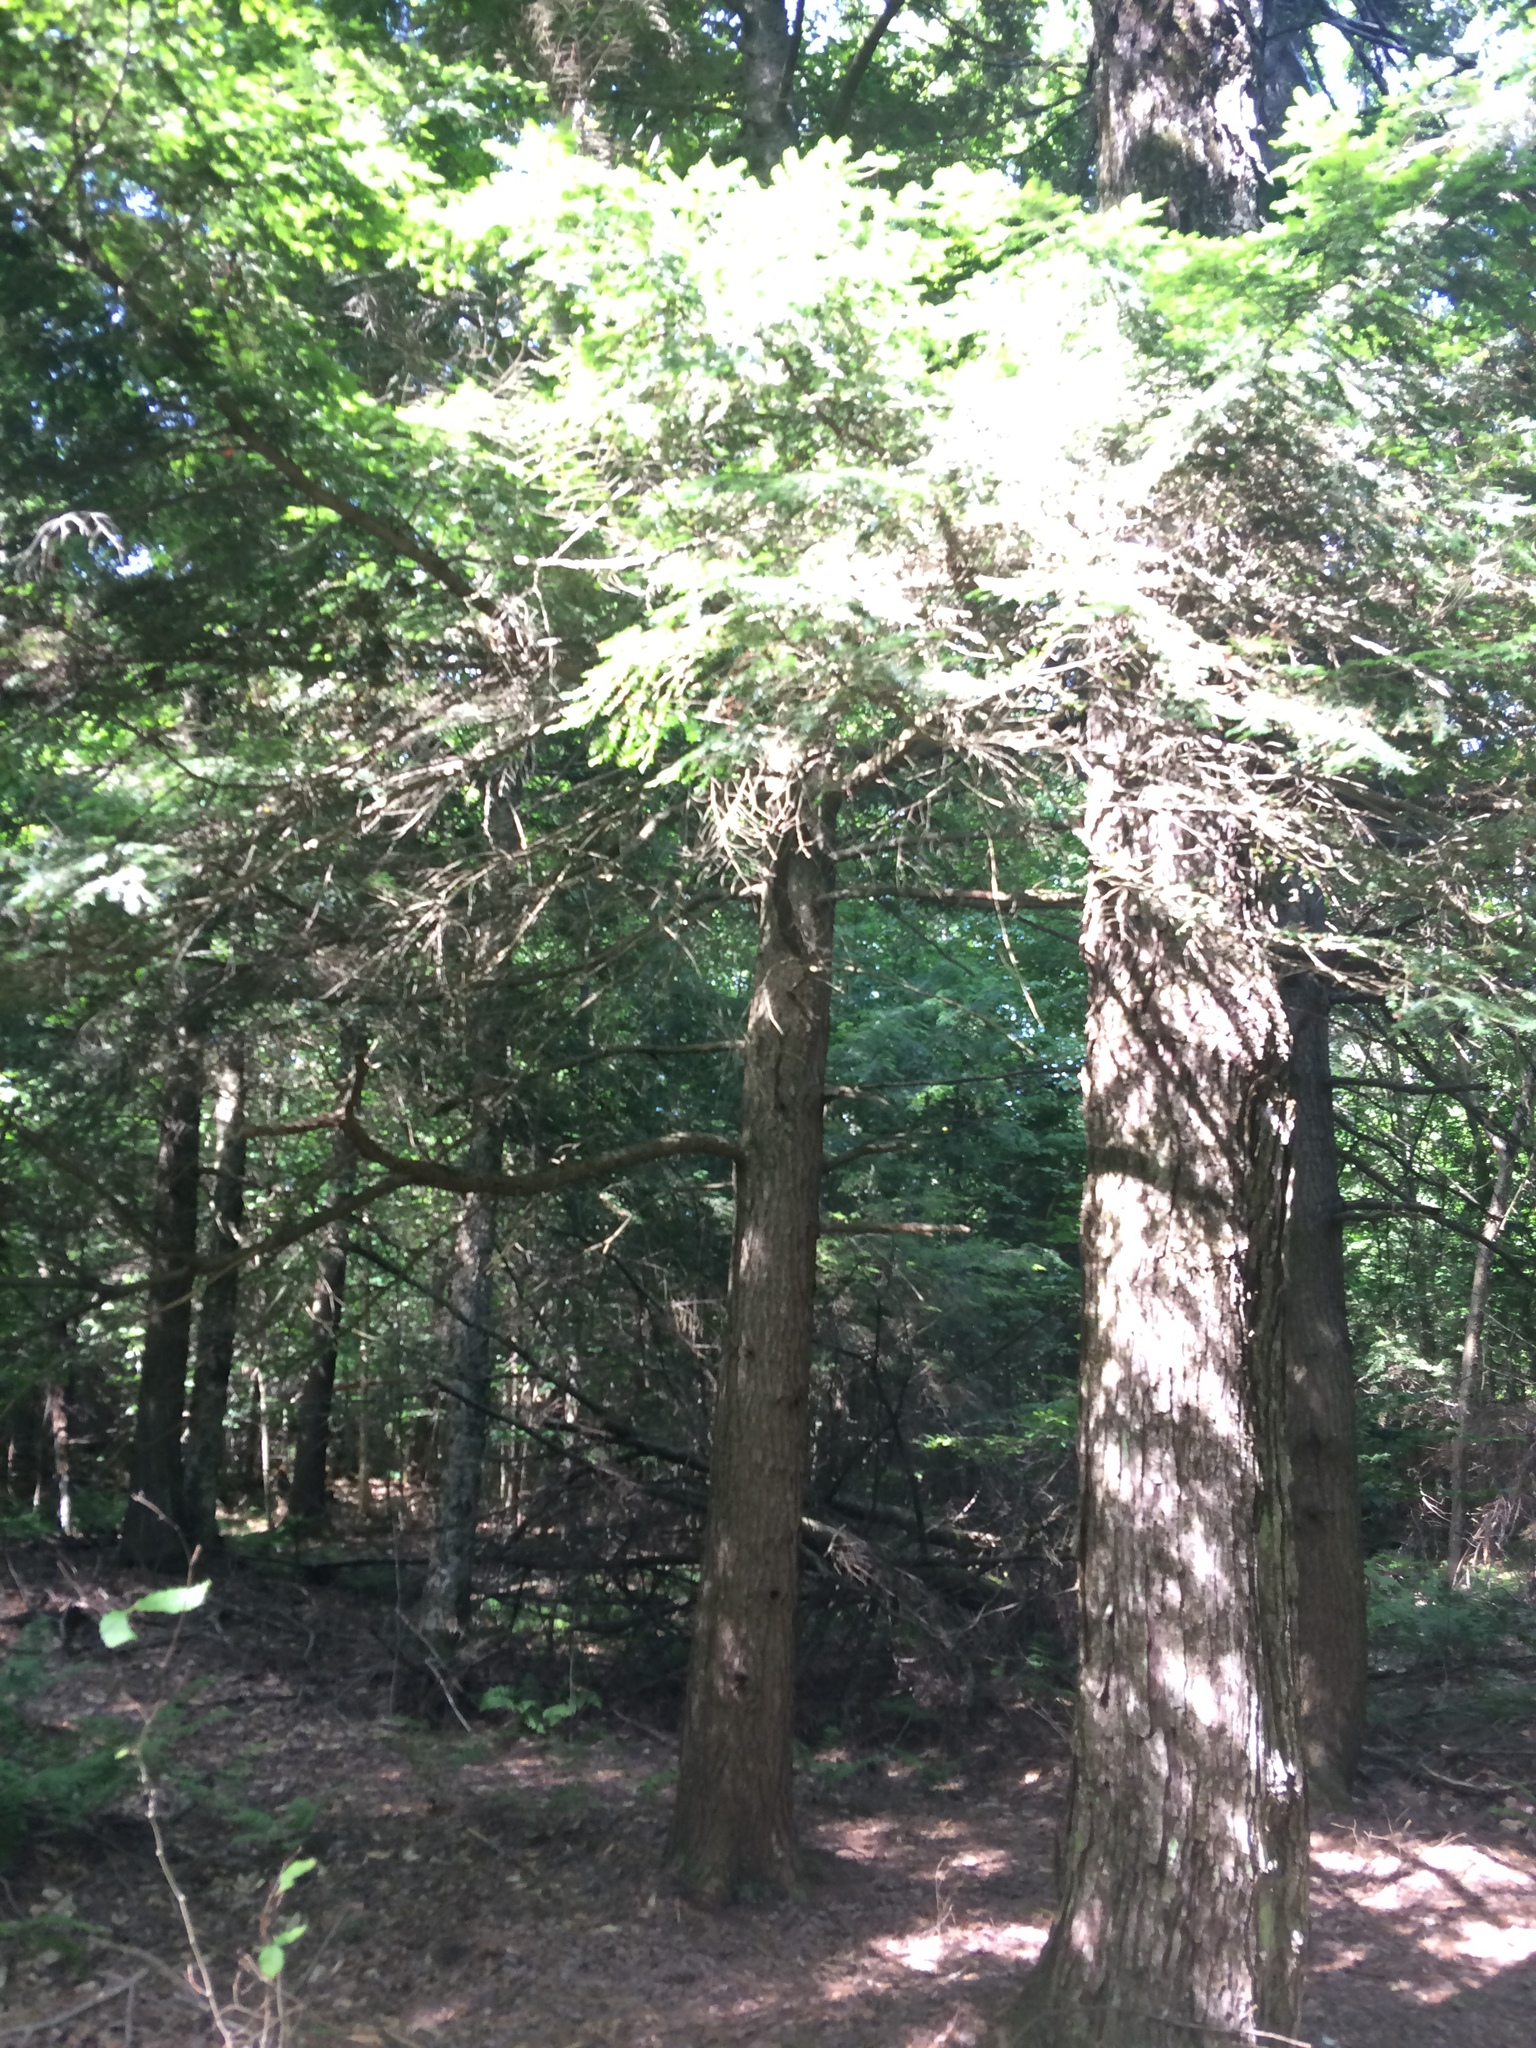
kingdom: Plantae
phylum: Tracheophyta
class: Pinopsida
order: Pinales
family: Pinaceae
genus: Tsuga
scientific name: Tsuga canadensis
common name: Eastern hemlock
